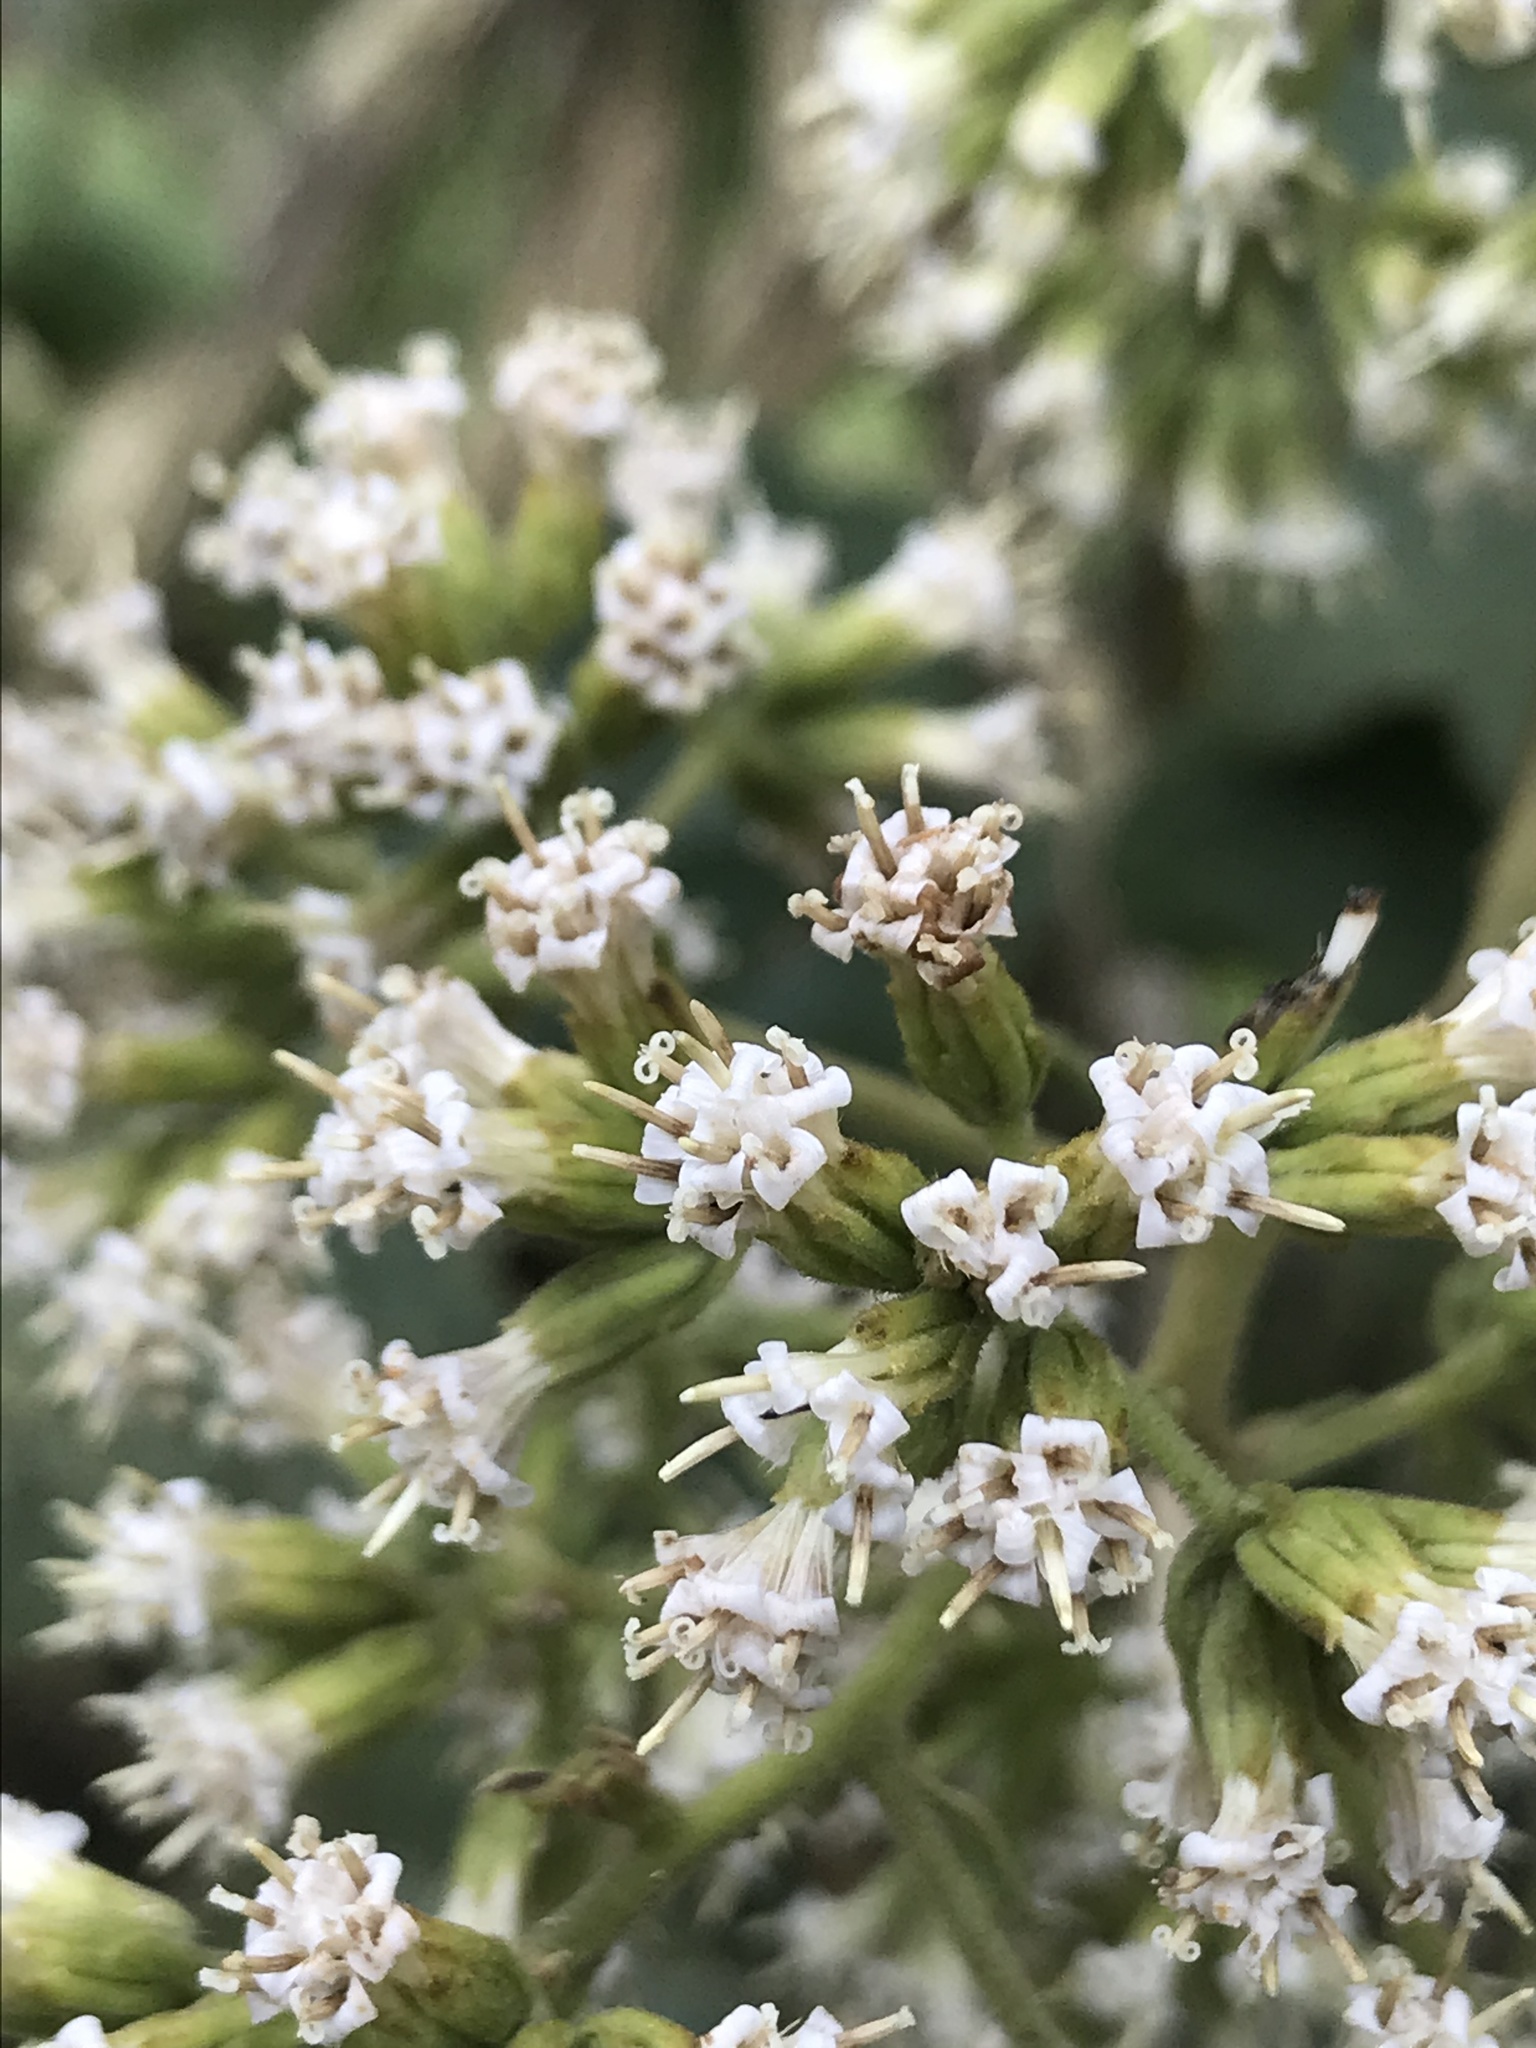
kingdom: Plantae
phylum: Tracheophyta
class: Magnoliopsida
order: Asterales
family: Asteraceae
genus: Jungia
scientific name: Jungia ferruginea
